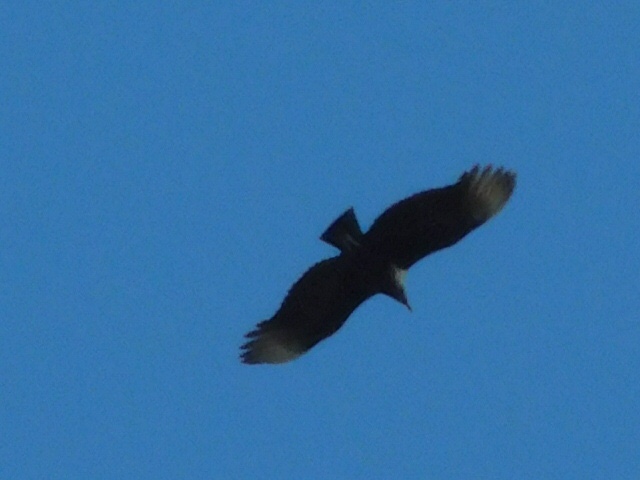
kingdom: Animalia
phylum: Chordata
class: Aves
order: Accipitriformes
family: Cathartidae
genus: Coragyps
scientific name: Coragyps atratus
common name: Black vulture
